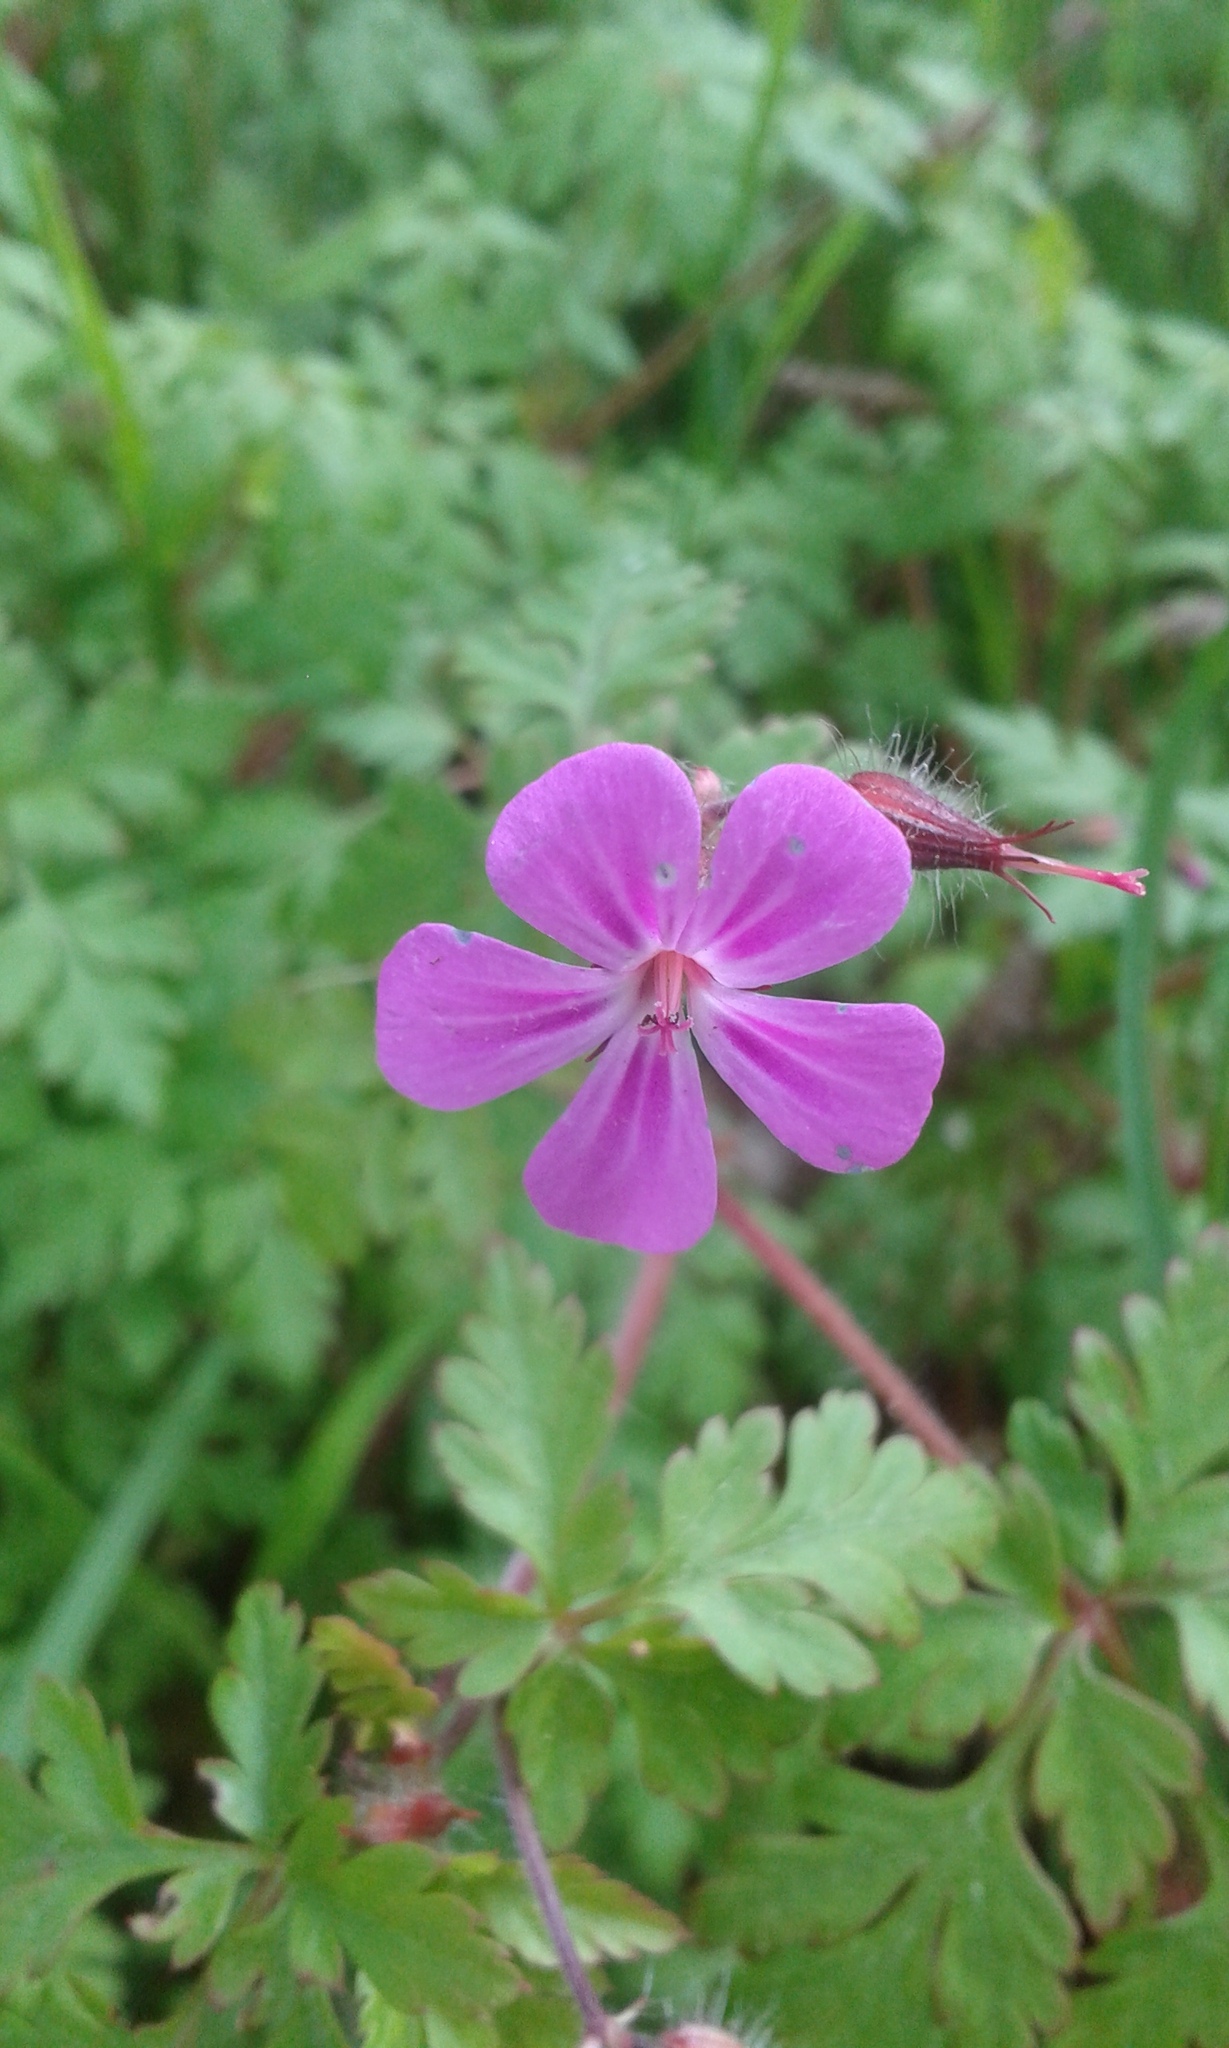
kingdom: Plantae
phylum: Tracheophyta
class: Magnoliopsida
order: Geraniales
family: Geraniaceae
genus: Geranium
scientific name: Geranium robertianum
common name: Herb-robert
